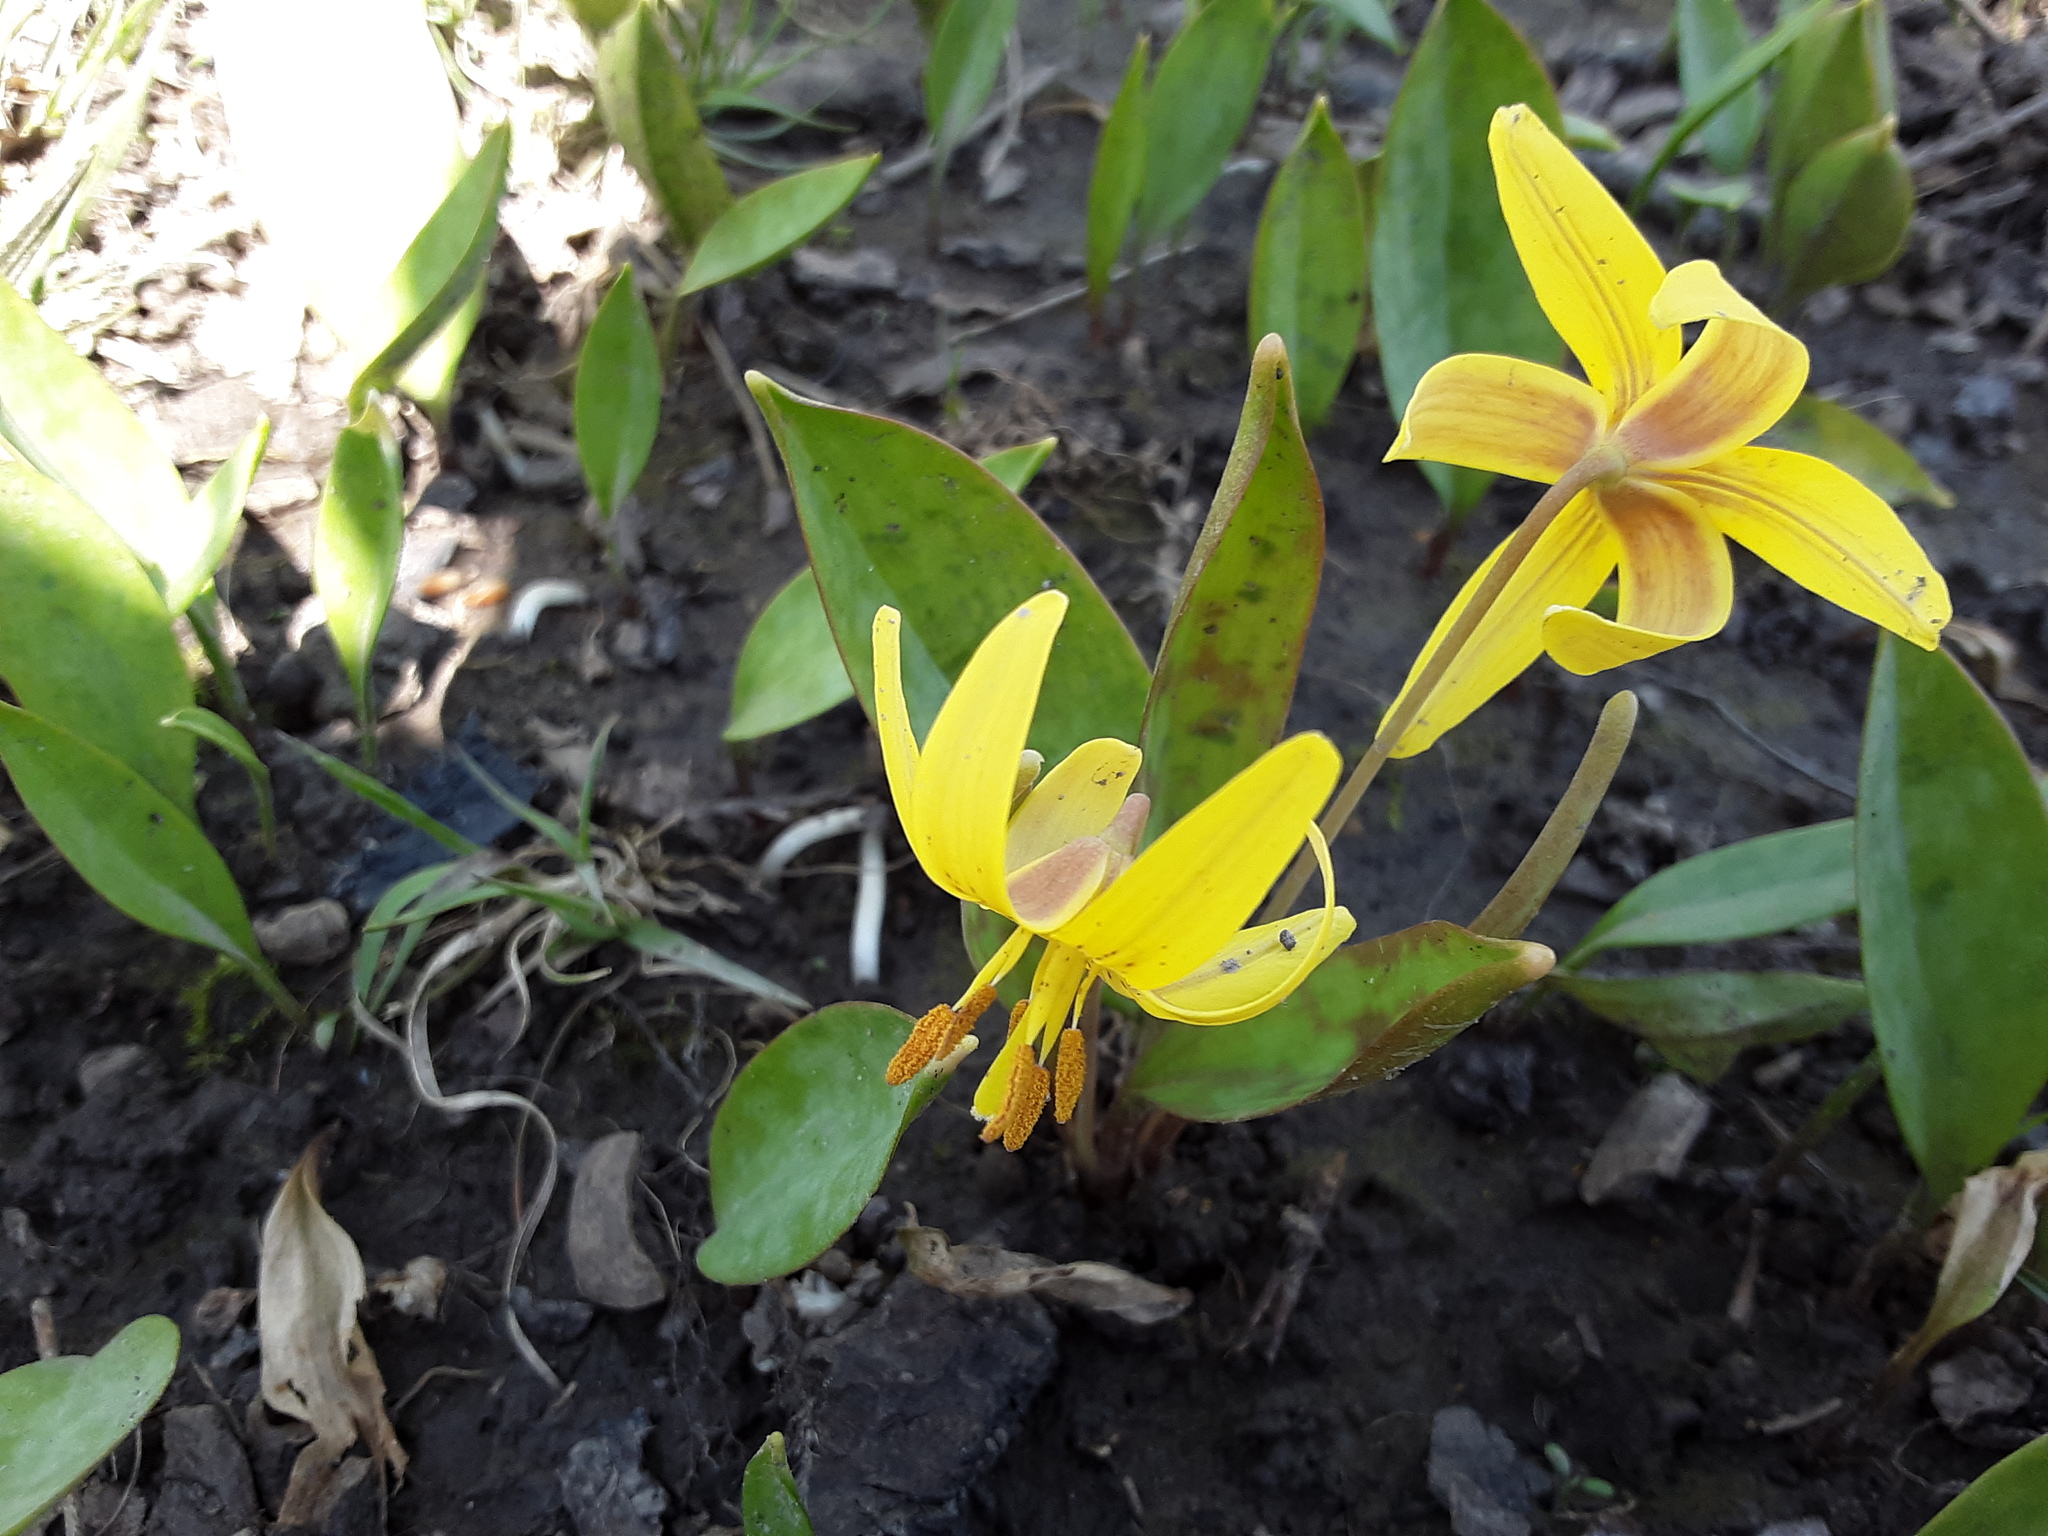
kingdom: Plantae
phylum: Tracheophyta
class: Liliopsida
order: Liliales
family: Liliaceae
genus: Erythronium
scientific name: Erythronium americanum
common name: Yellow adder's-tongue
